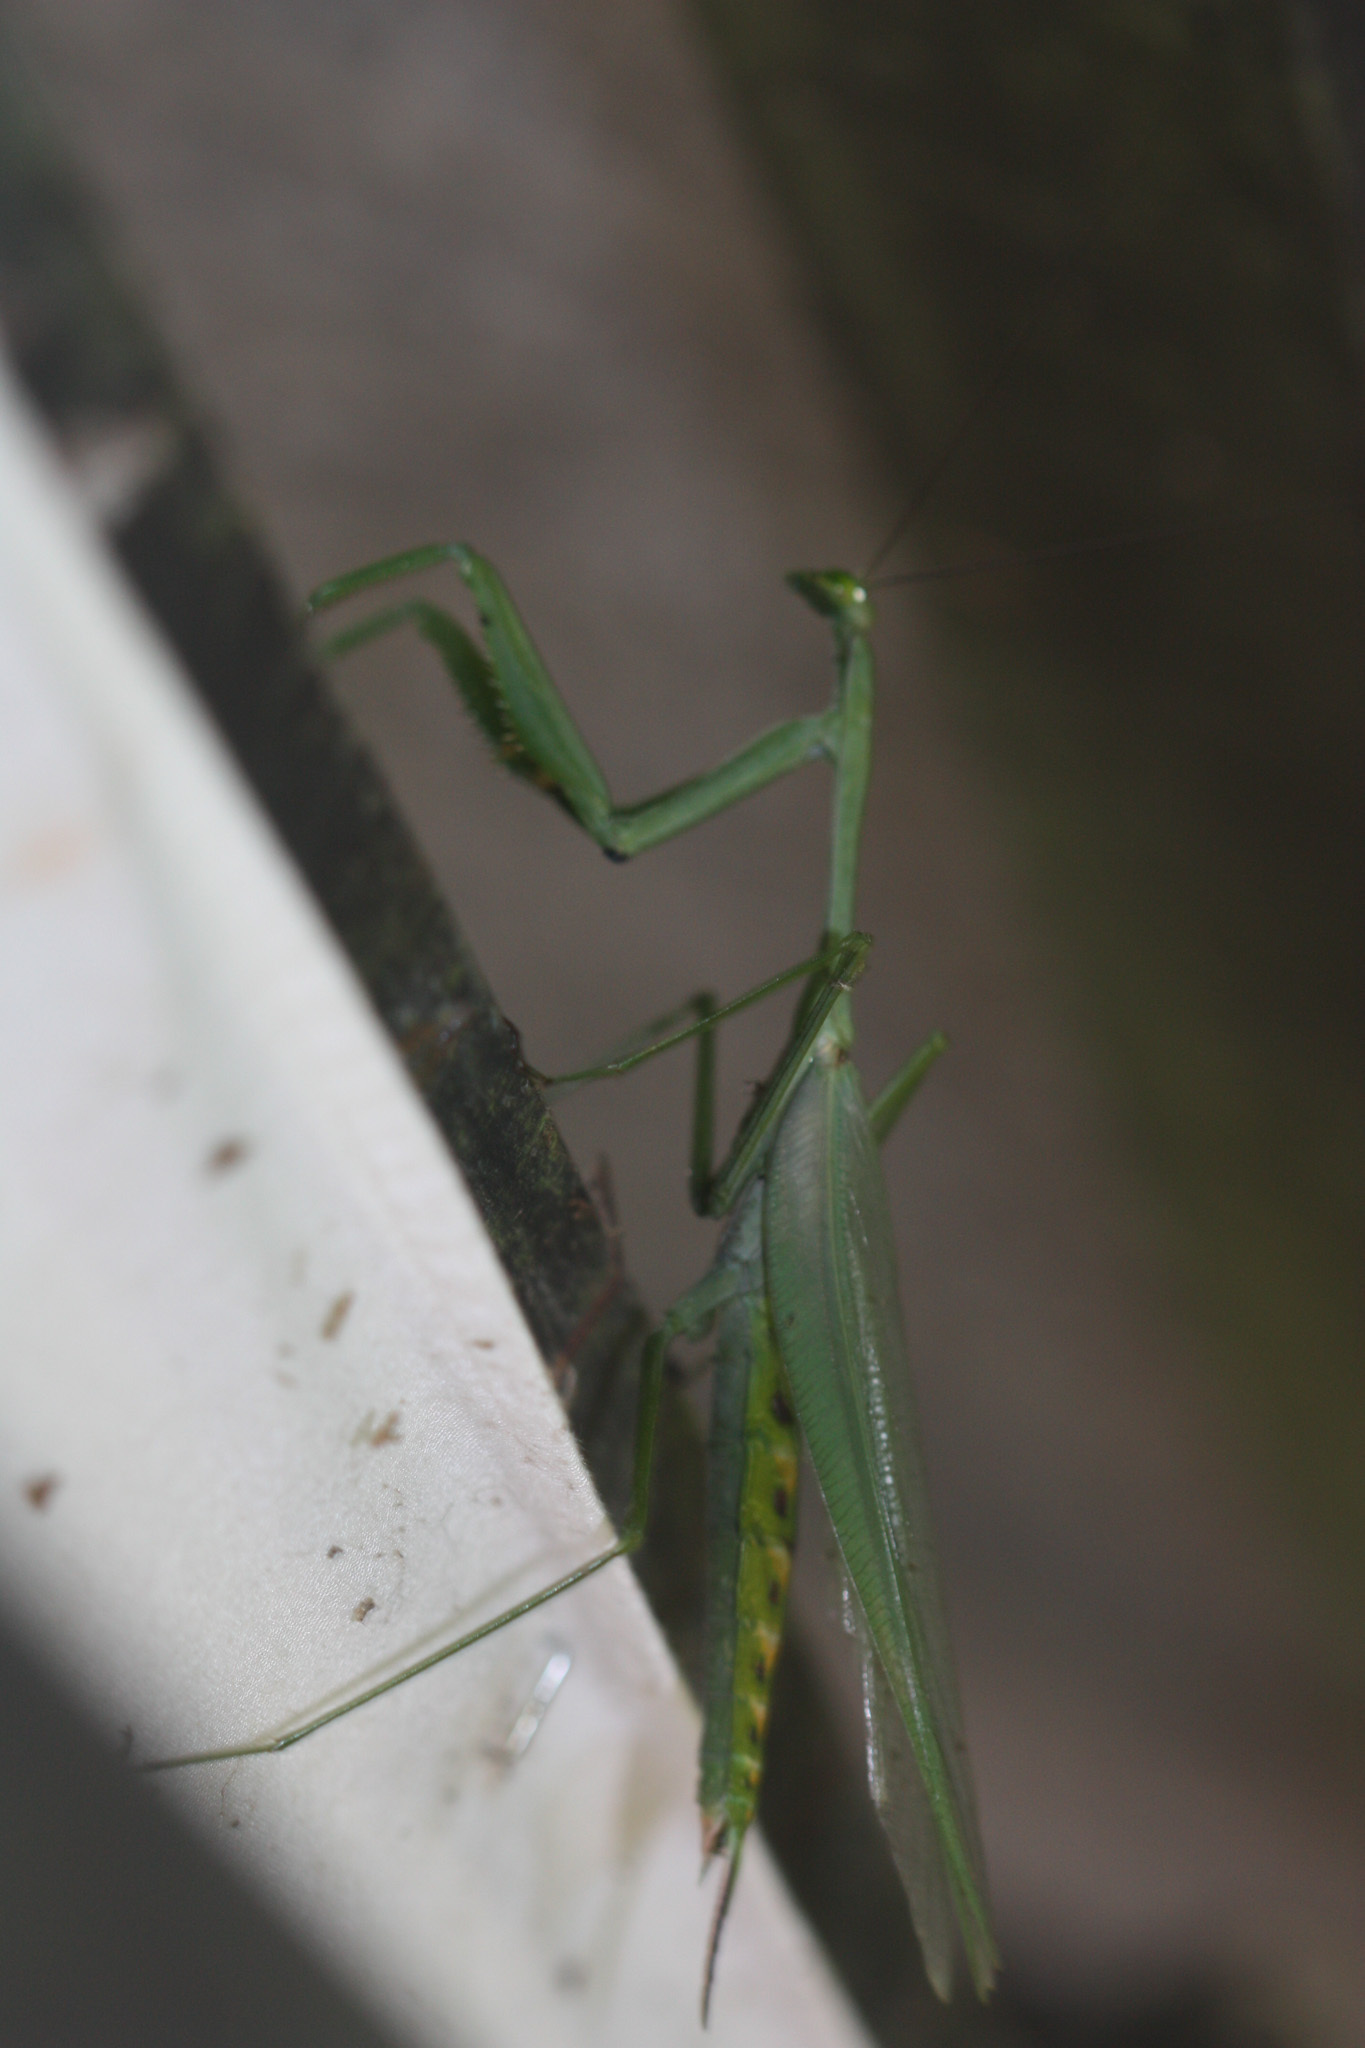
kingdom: Animalia
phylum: Arthropoda
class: Insecta
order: Mantodea
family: Photinaidae
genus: Macromantis
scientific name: Macromantis nicaraguae
